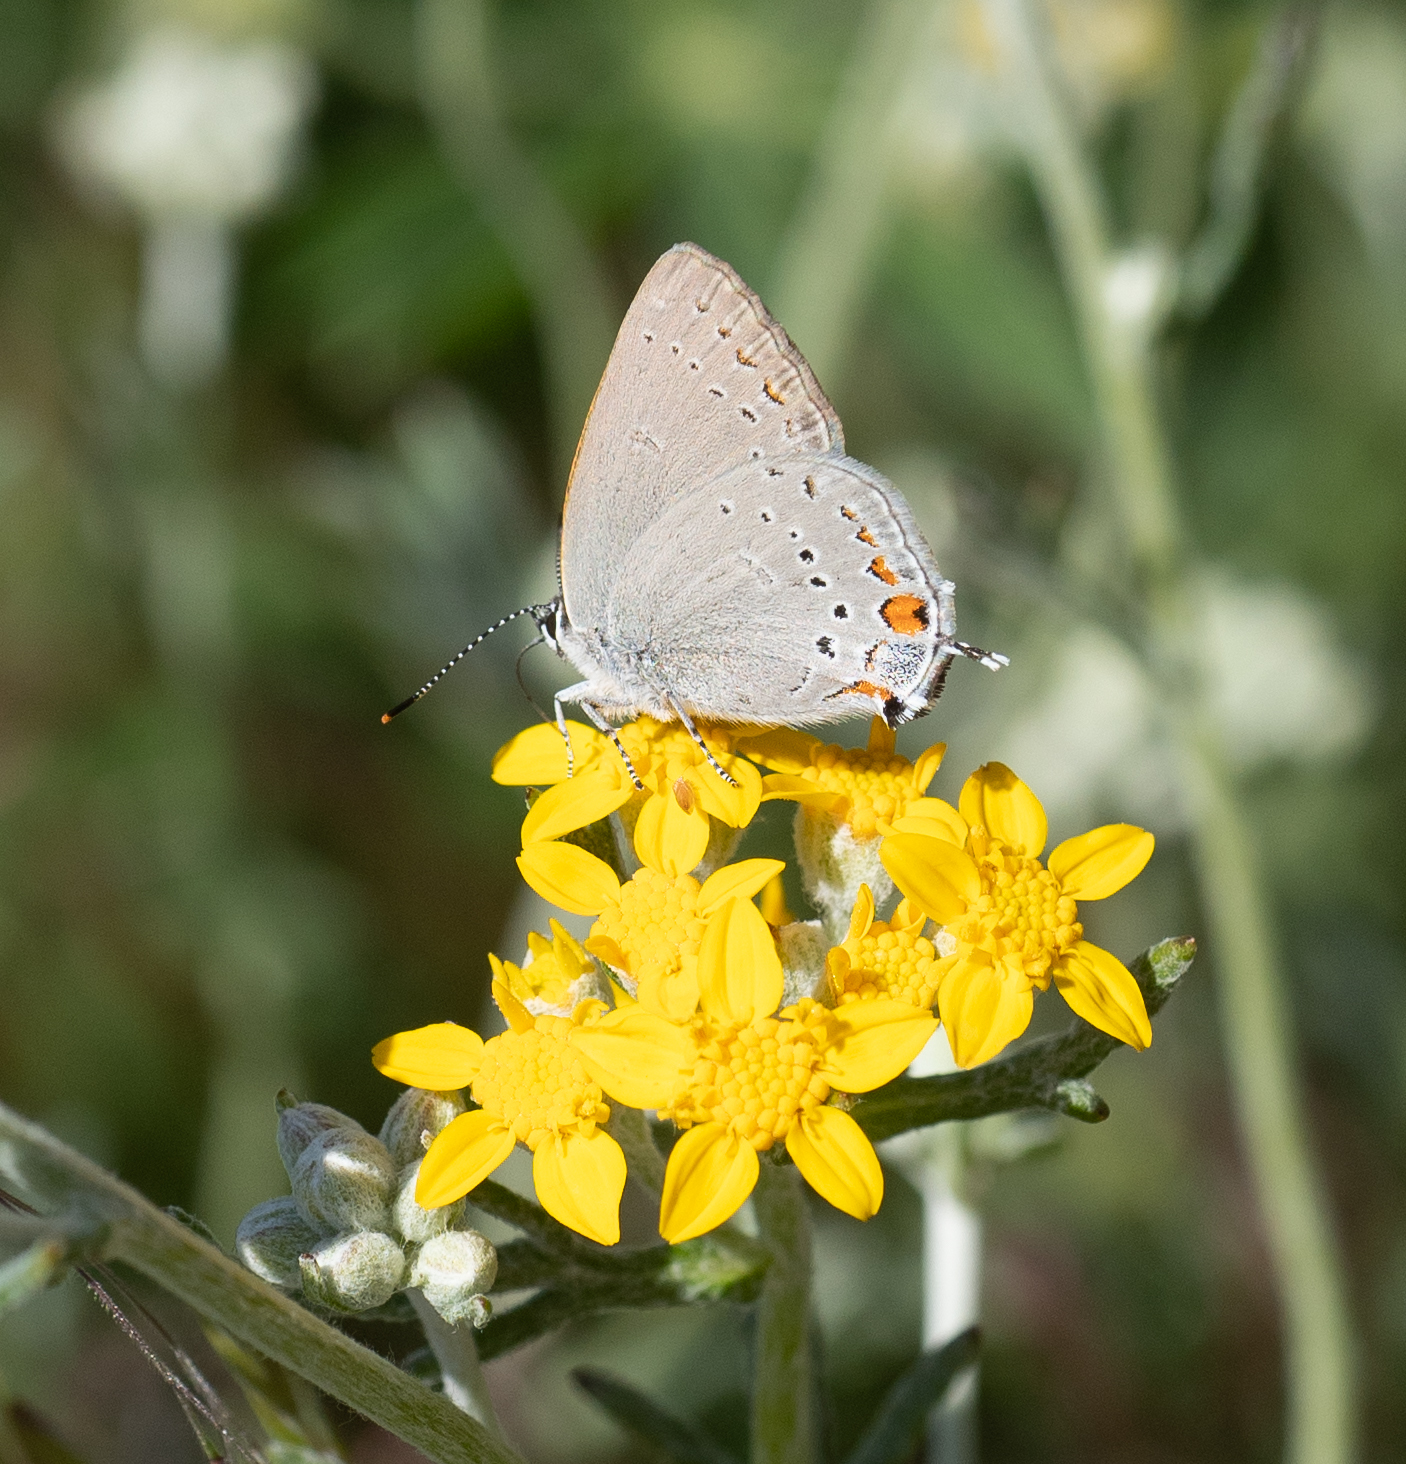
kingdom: Animalia
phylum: Arthropoda
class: Insecta
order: Lepidoptera
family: Lycaenidae
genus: Strymon
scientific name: Strymon acadica
